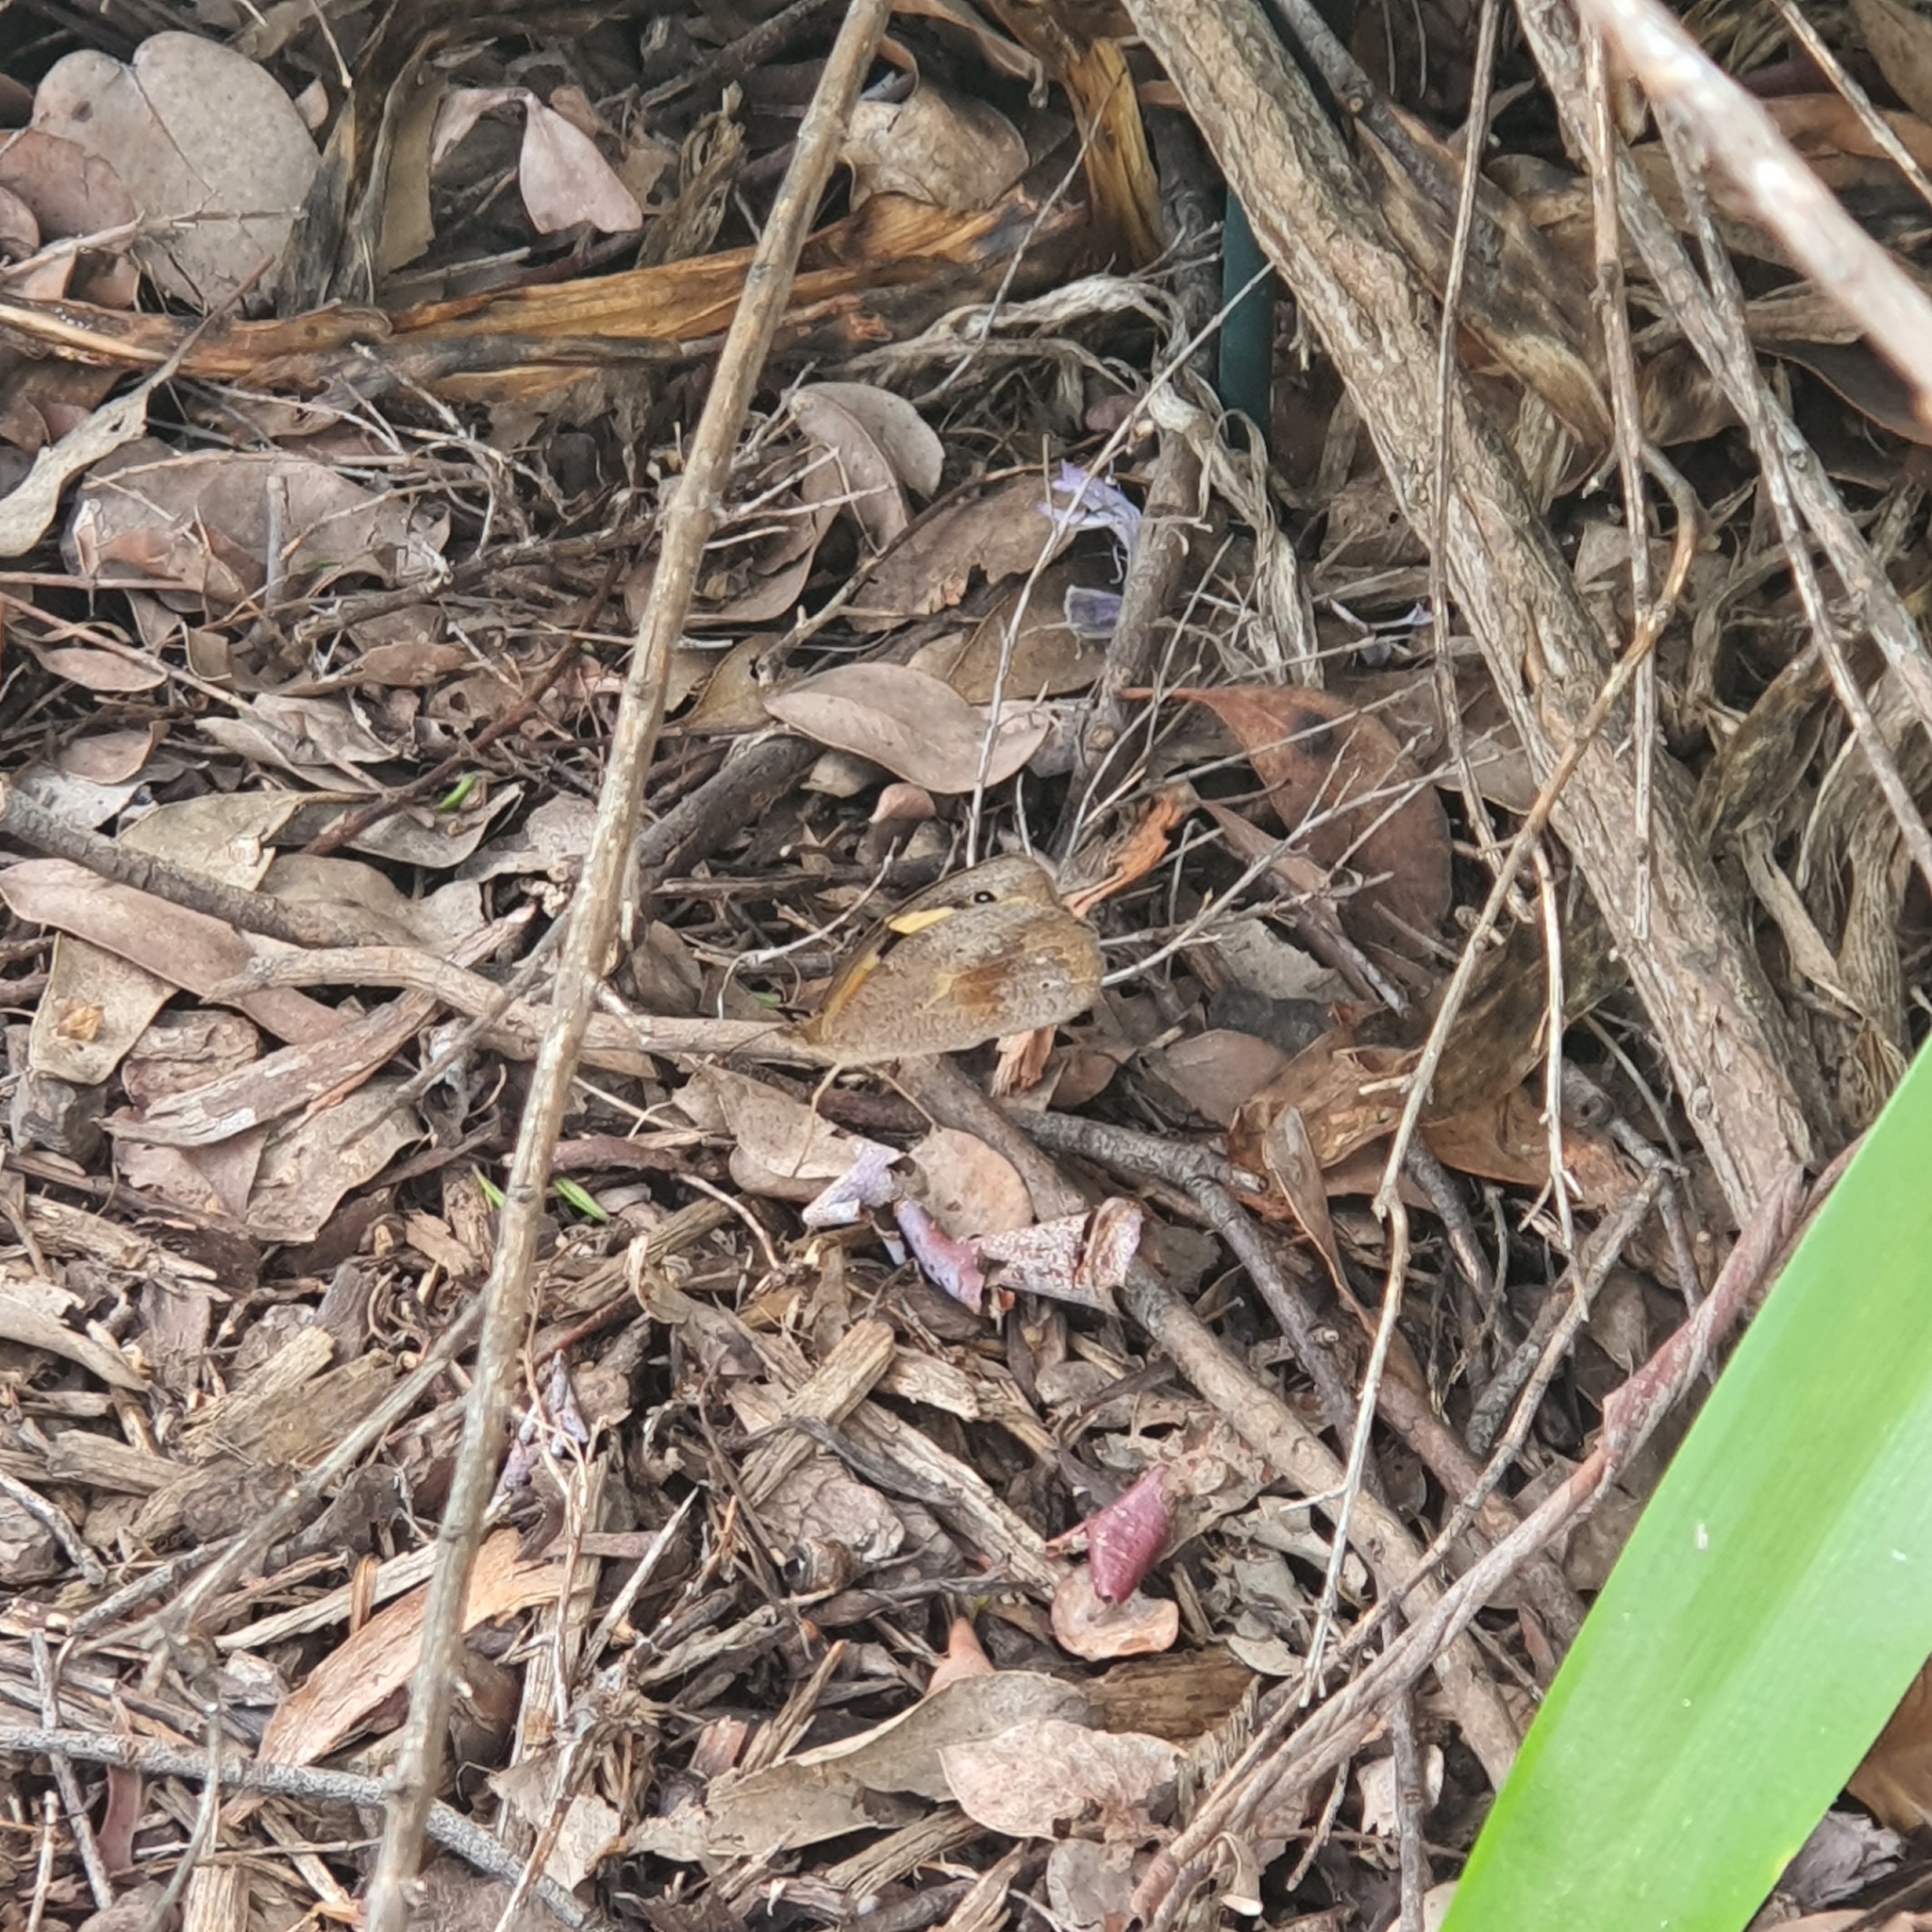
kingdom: Animalia
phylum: Arthropoda
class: Insecta
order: Lepidoptera
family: Nymphalidae
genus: Heteronympha
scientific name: Heteronympha merope
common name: Common brown
